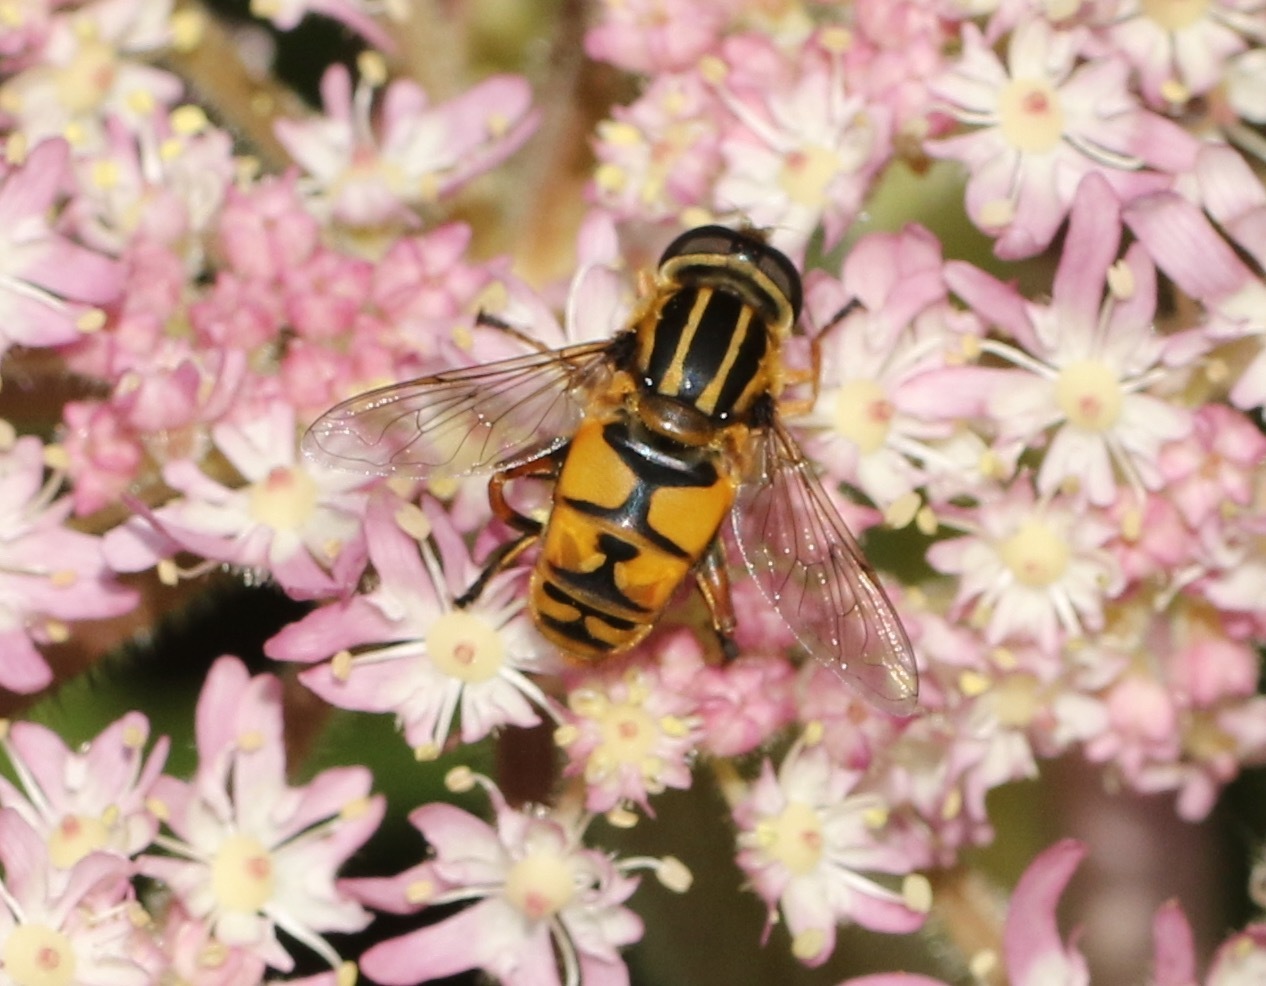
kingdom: Animalia
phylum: Arthropoda
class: Insecta
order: Diptera
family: Syrphidae
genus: Helophilus
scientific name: Helophilus pendulus
